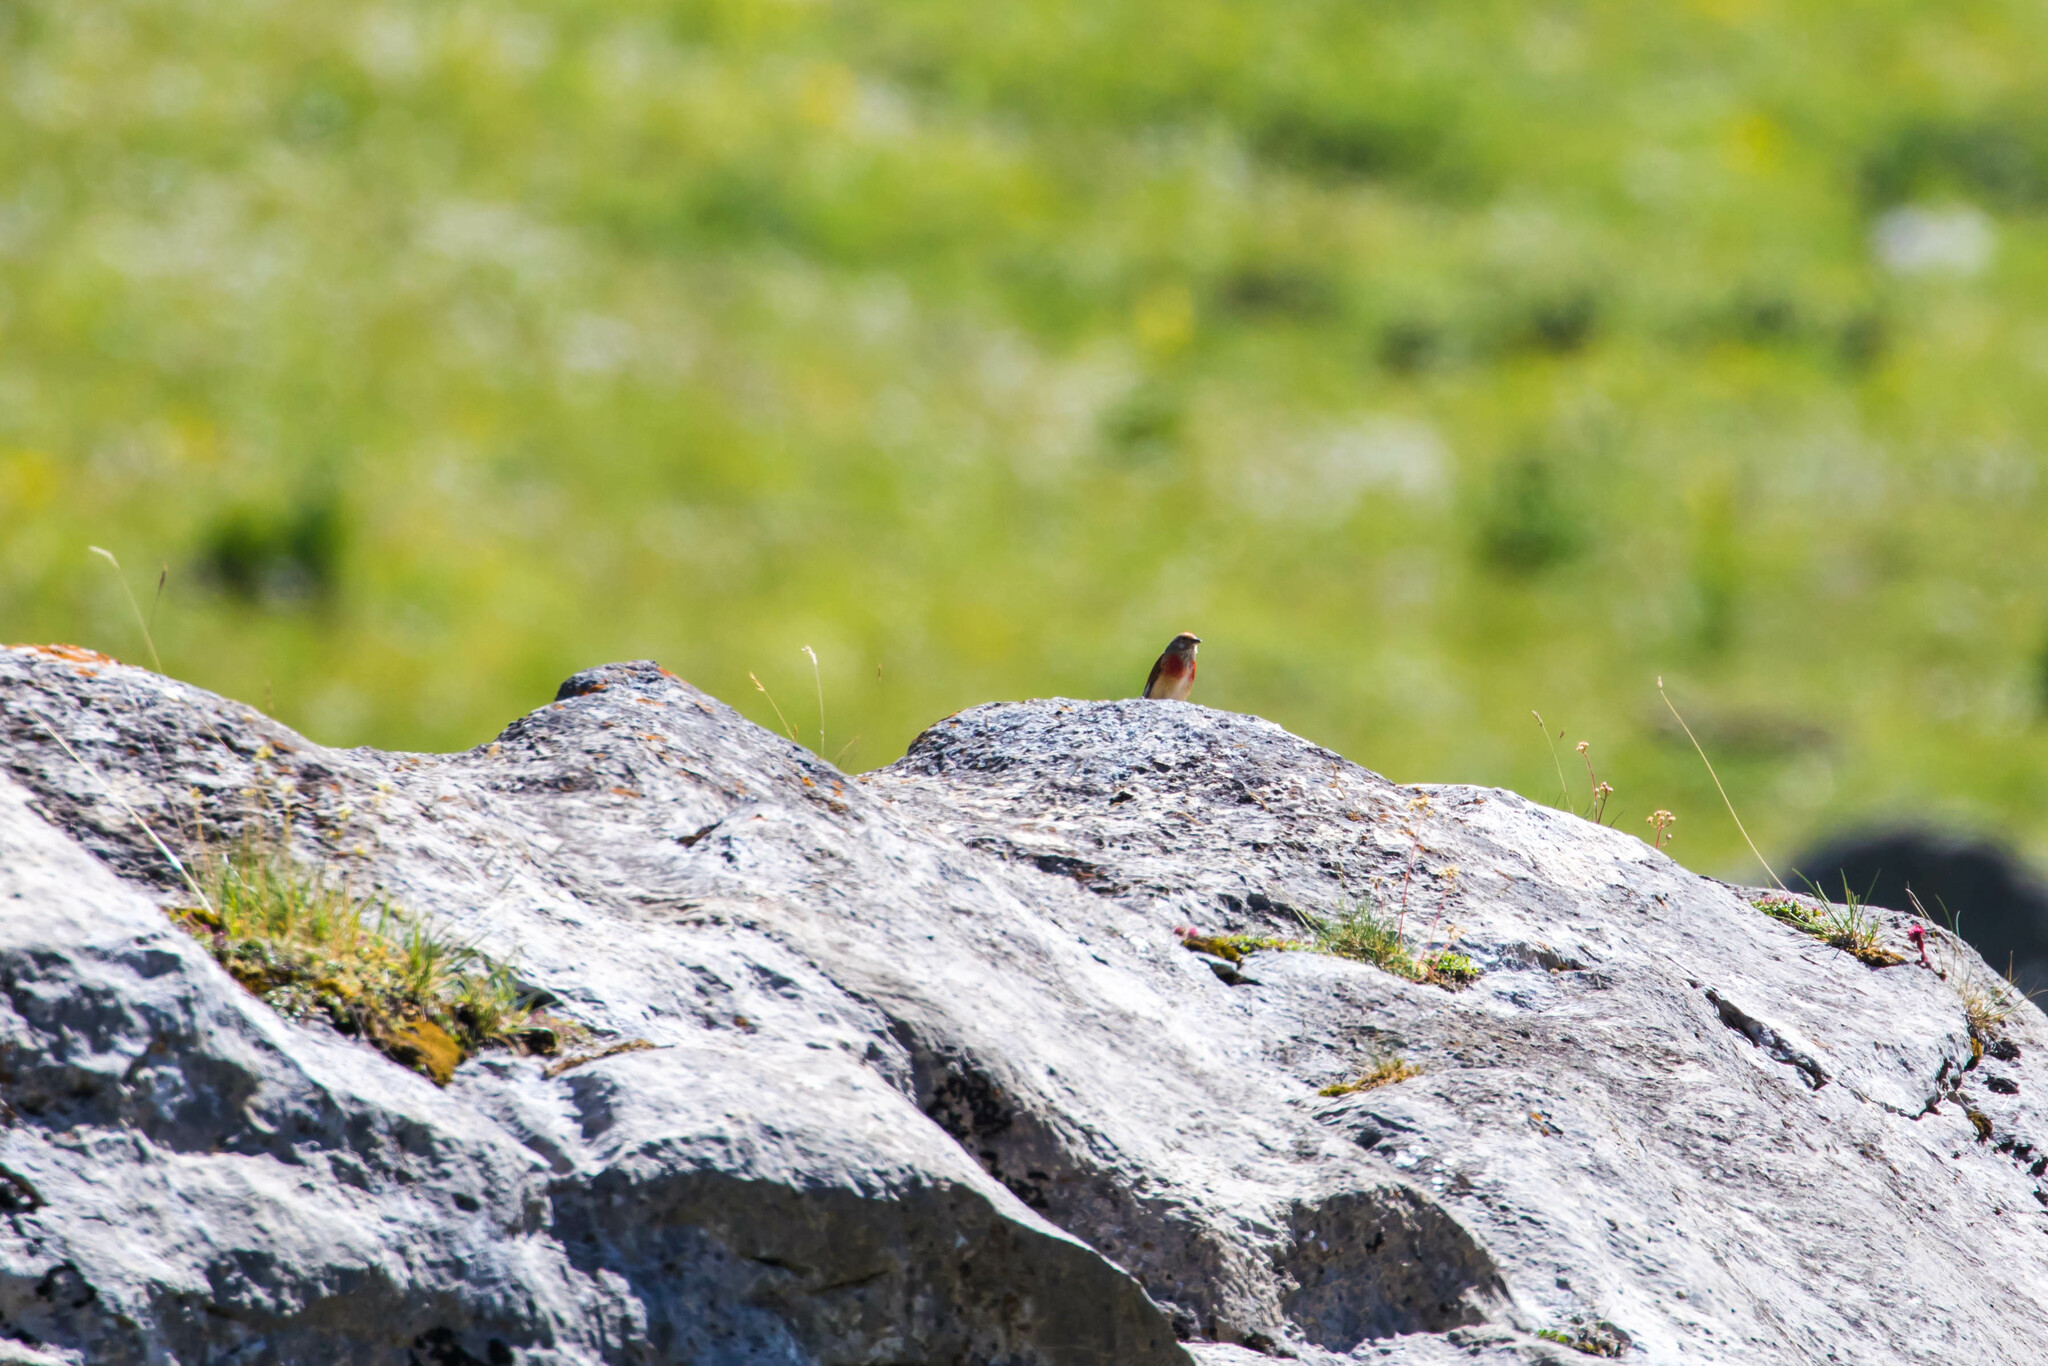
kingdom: Animalia
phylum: Chordata
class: Aves
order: Passeriformes
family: Fringillidae
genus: Linaria
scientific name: Linaria cannabina
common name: Common linnet
